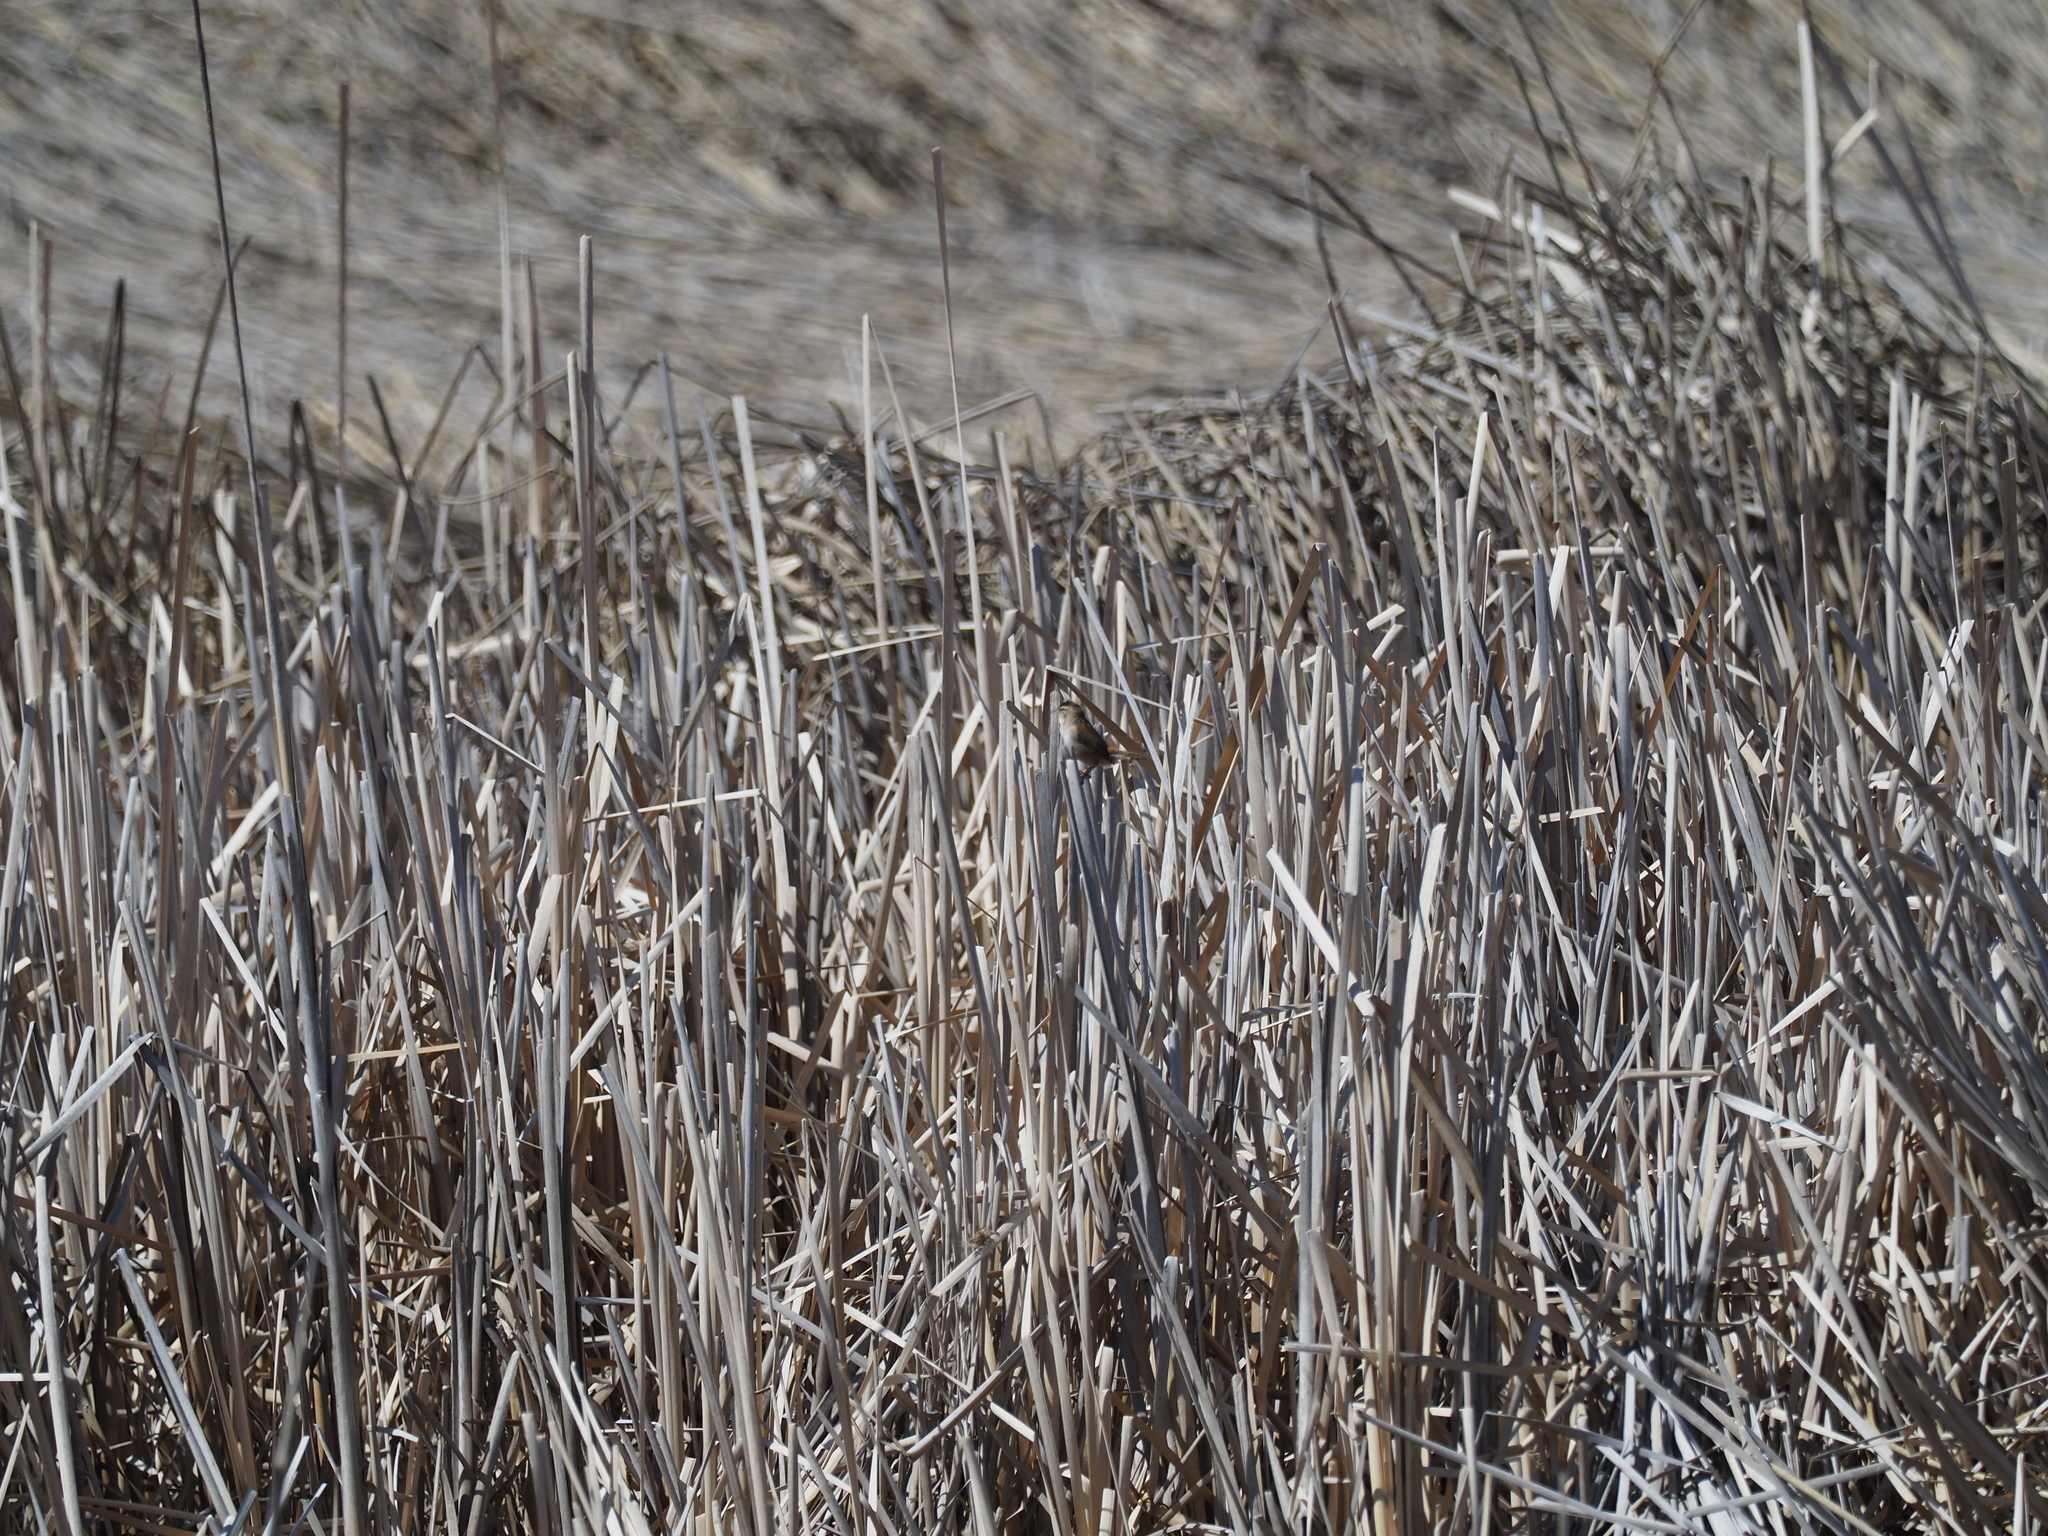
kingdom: Animalia
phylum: Chordata
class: Aves
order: Passeriformes
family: Troglodytidae
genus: Cistothorus
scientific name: Cistothorus palustris
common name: Marsh wren
